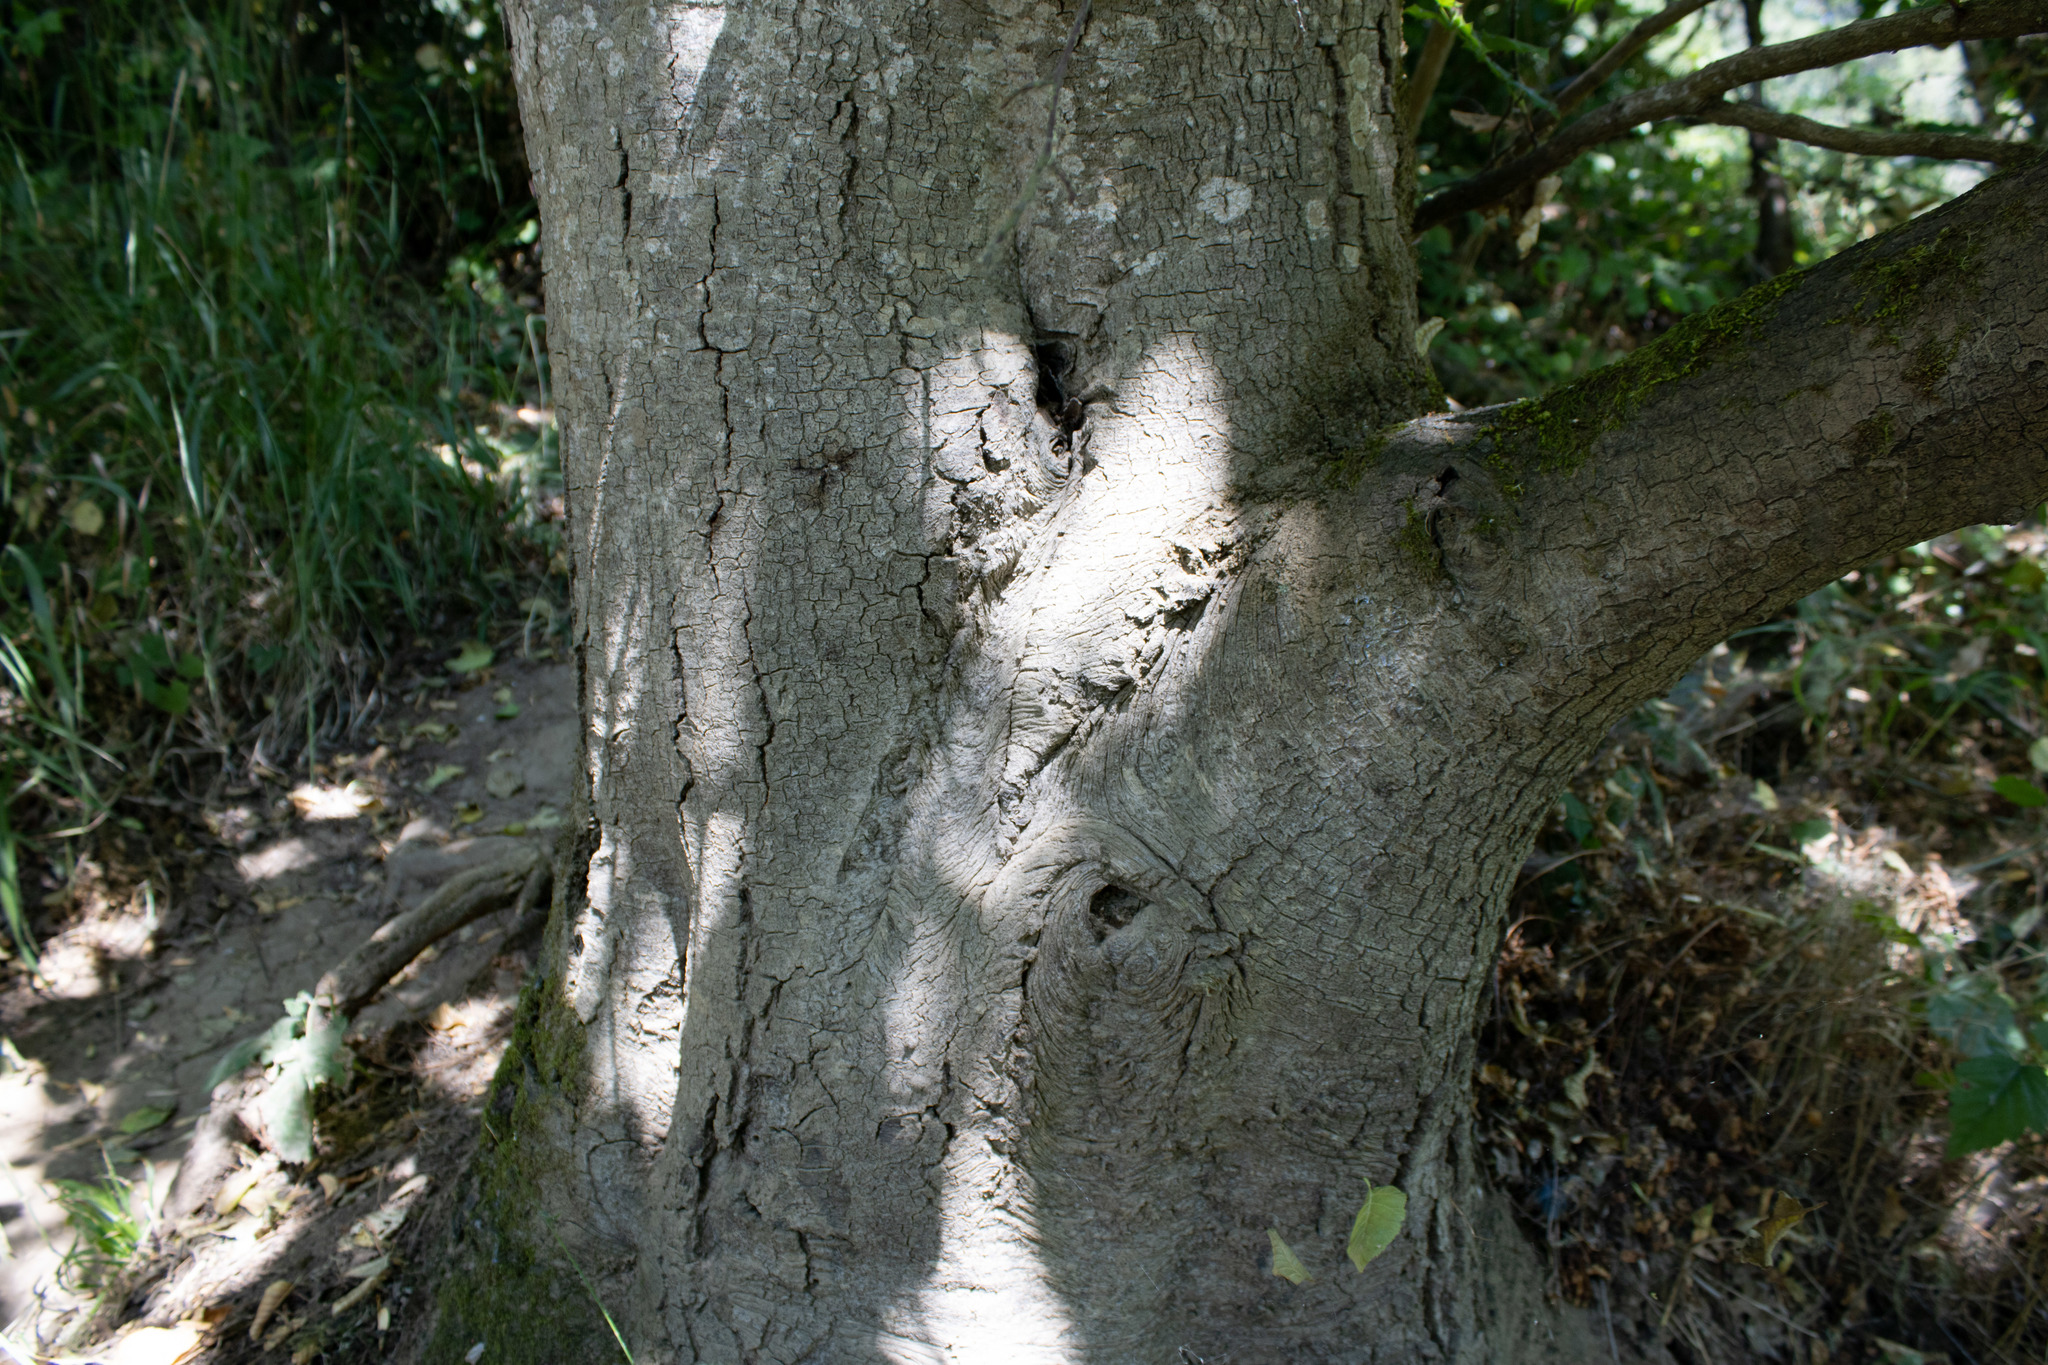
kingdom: Plantae
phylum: Tracheophyta
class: Magnoliopsida
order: Fagales
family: Betulaceae
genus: Alnus
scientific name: Alnus rhombifolia
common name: California alder
